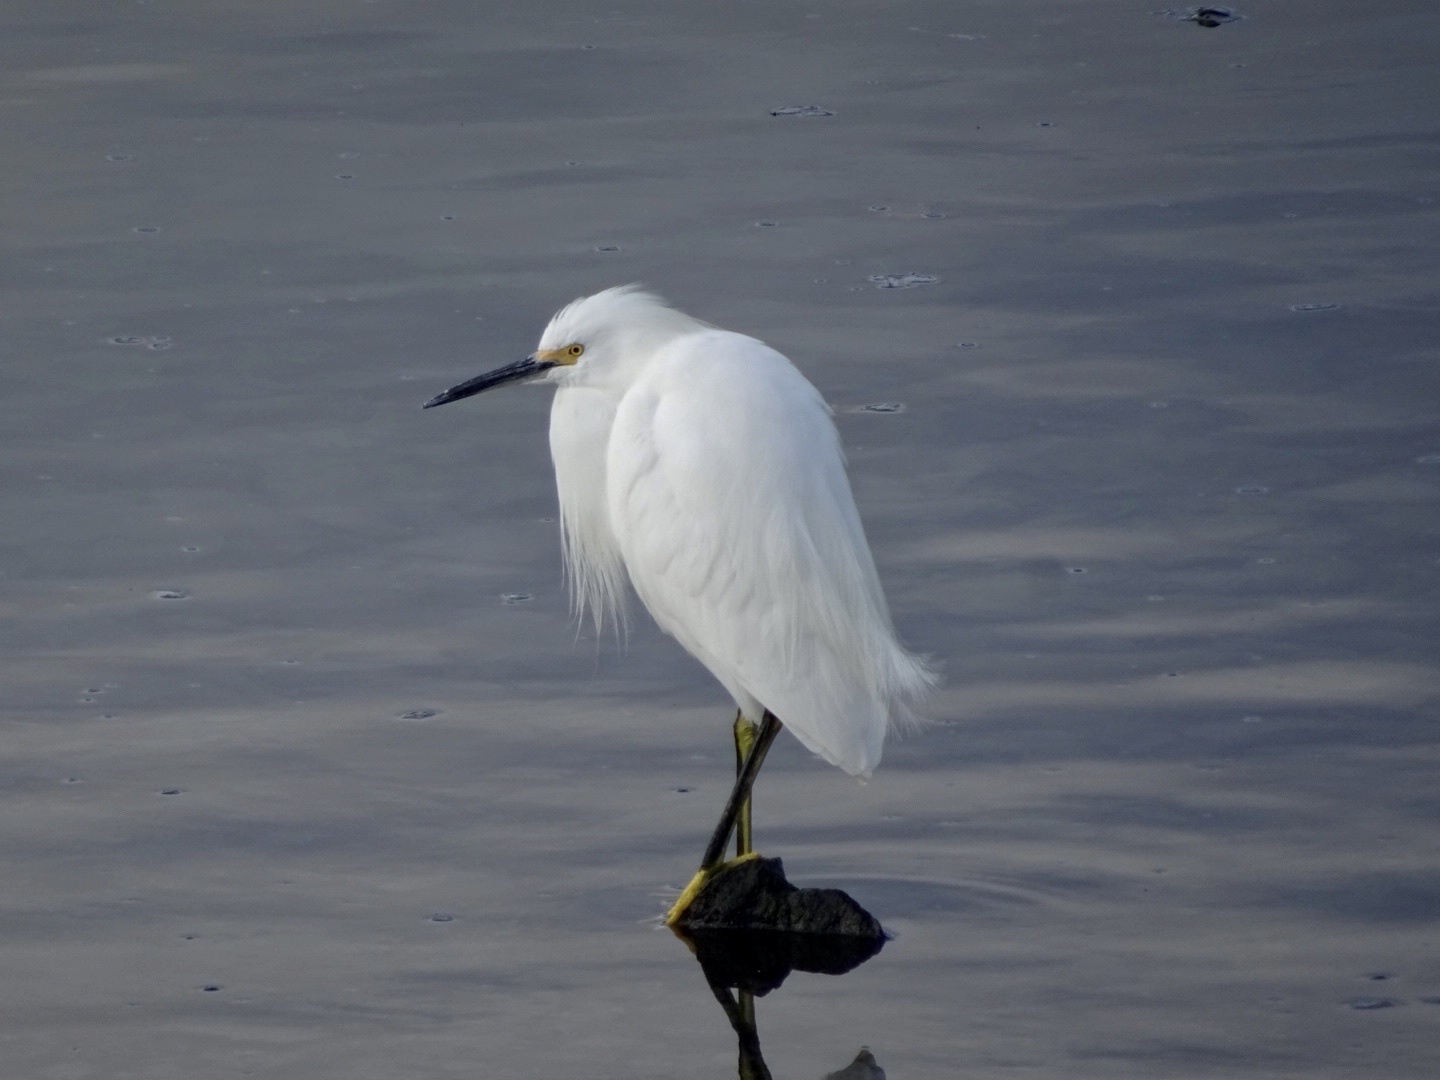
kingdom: Animalia
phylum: Chordata
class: Aves
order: Pelecaniformes
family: Ardeidae
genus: Egretta
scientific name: Egretta thula
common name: Snowy egret
